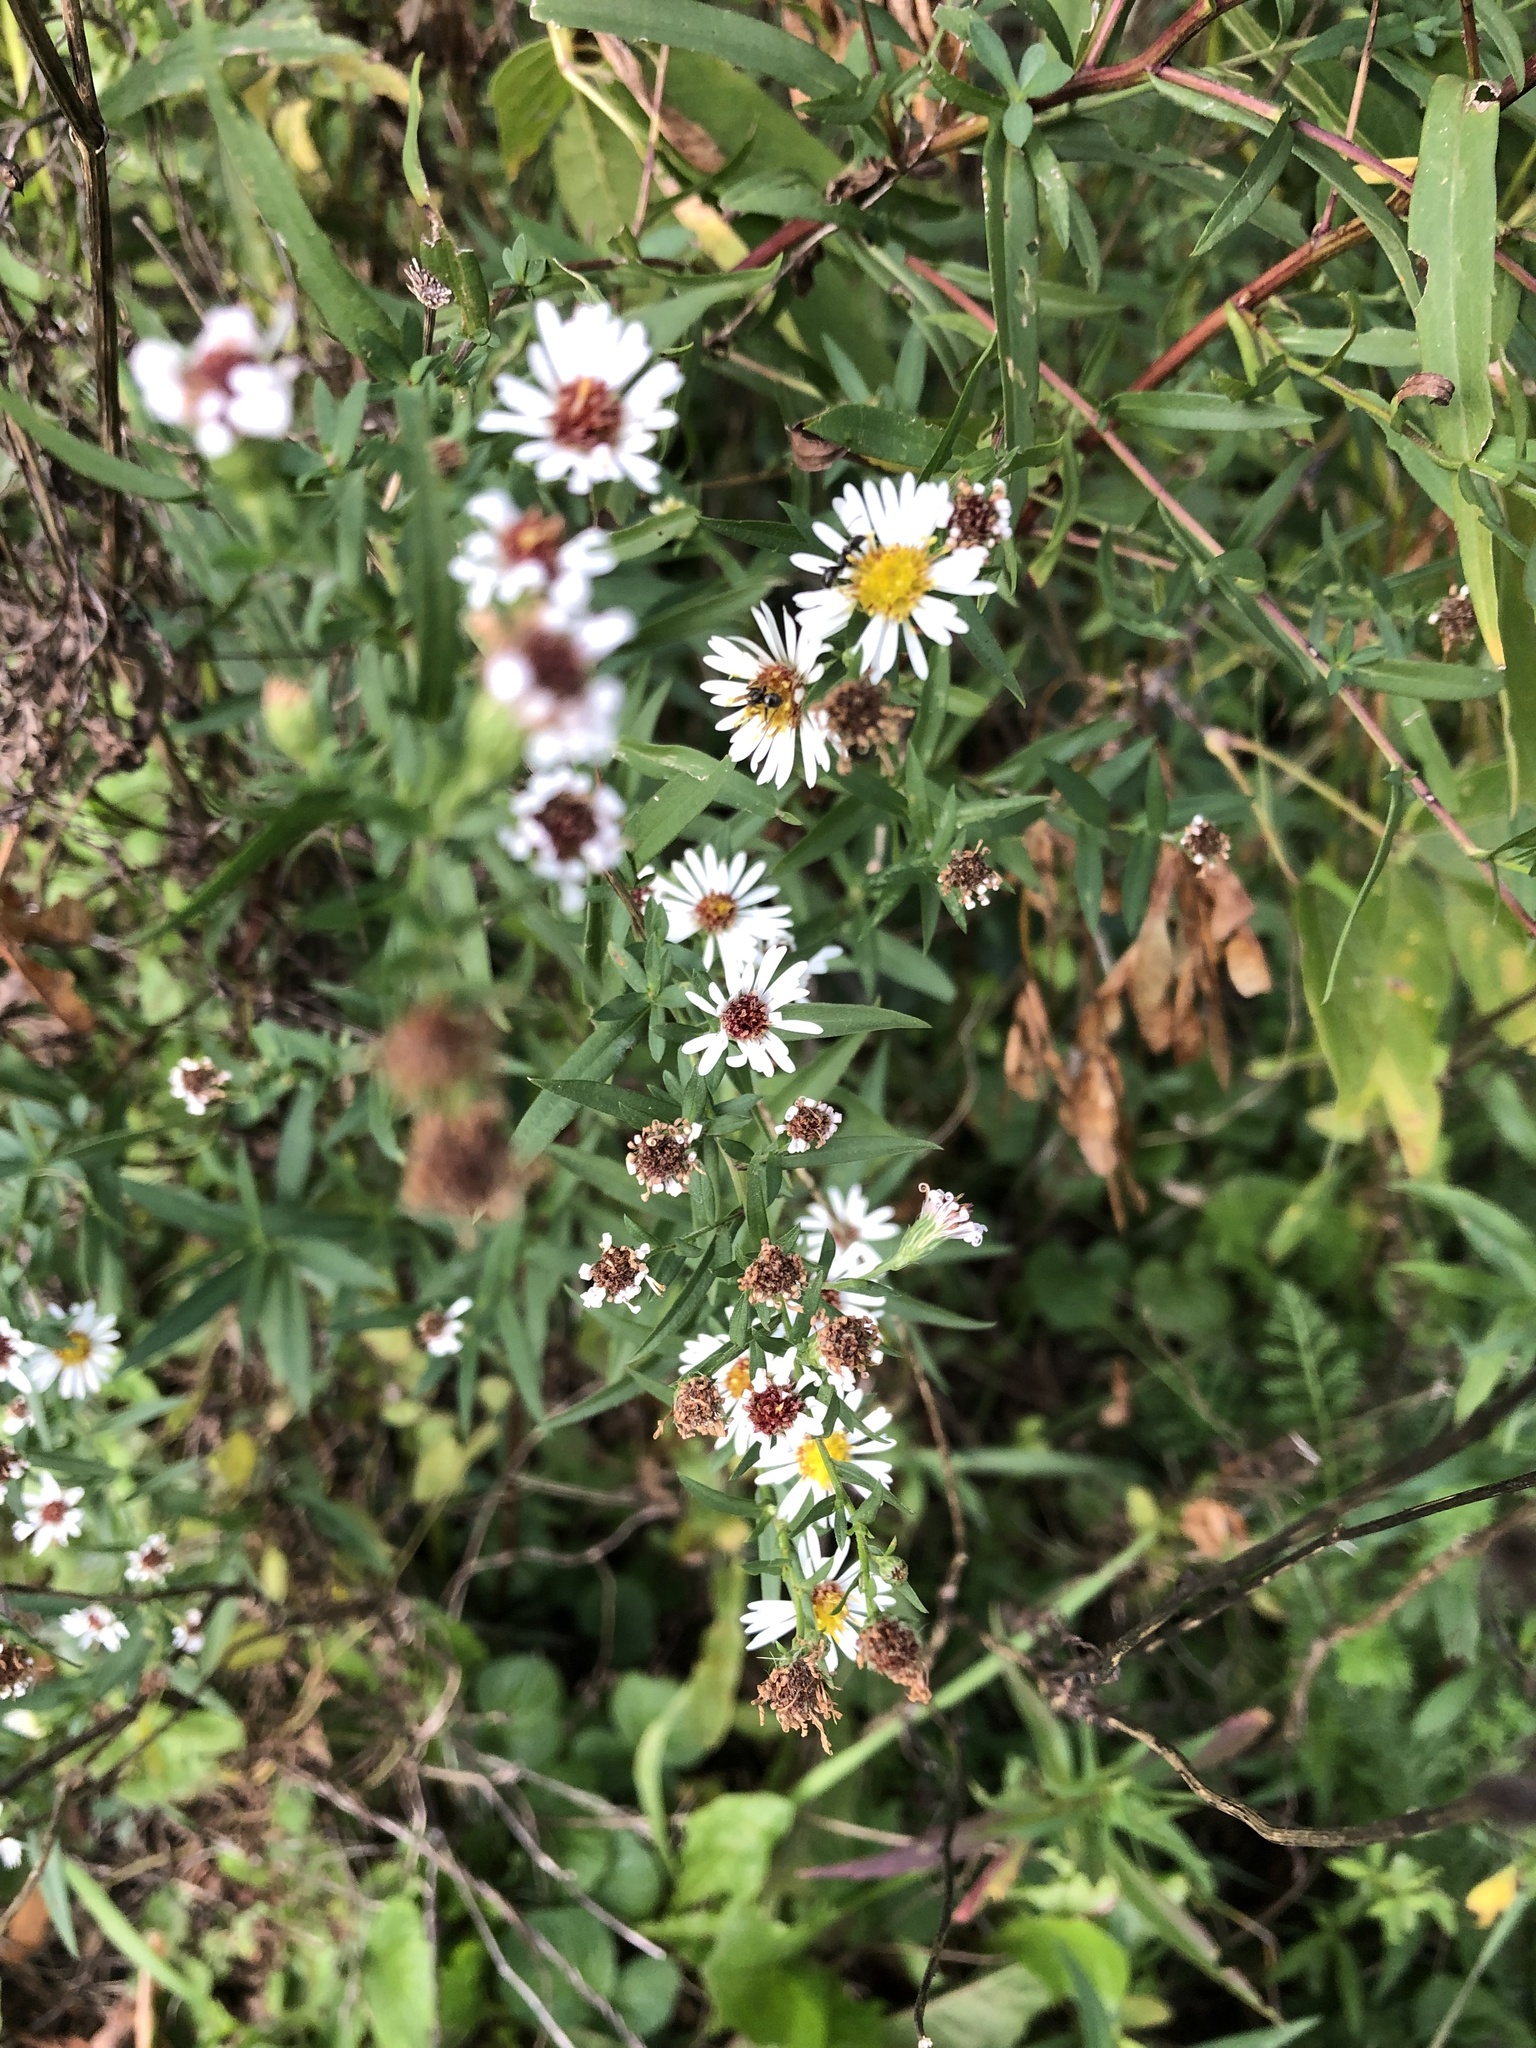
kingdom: Plantae
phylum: Tracheophyta
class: Magnoliopsida
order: Asterales
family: Asteraceae
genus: Symphyotrichum
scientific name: Symphyotrichum lanceolatum
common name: Panicled aster
